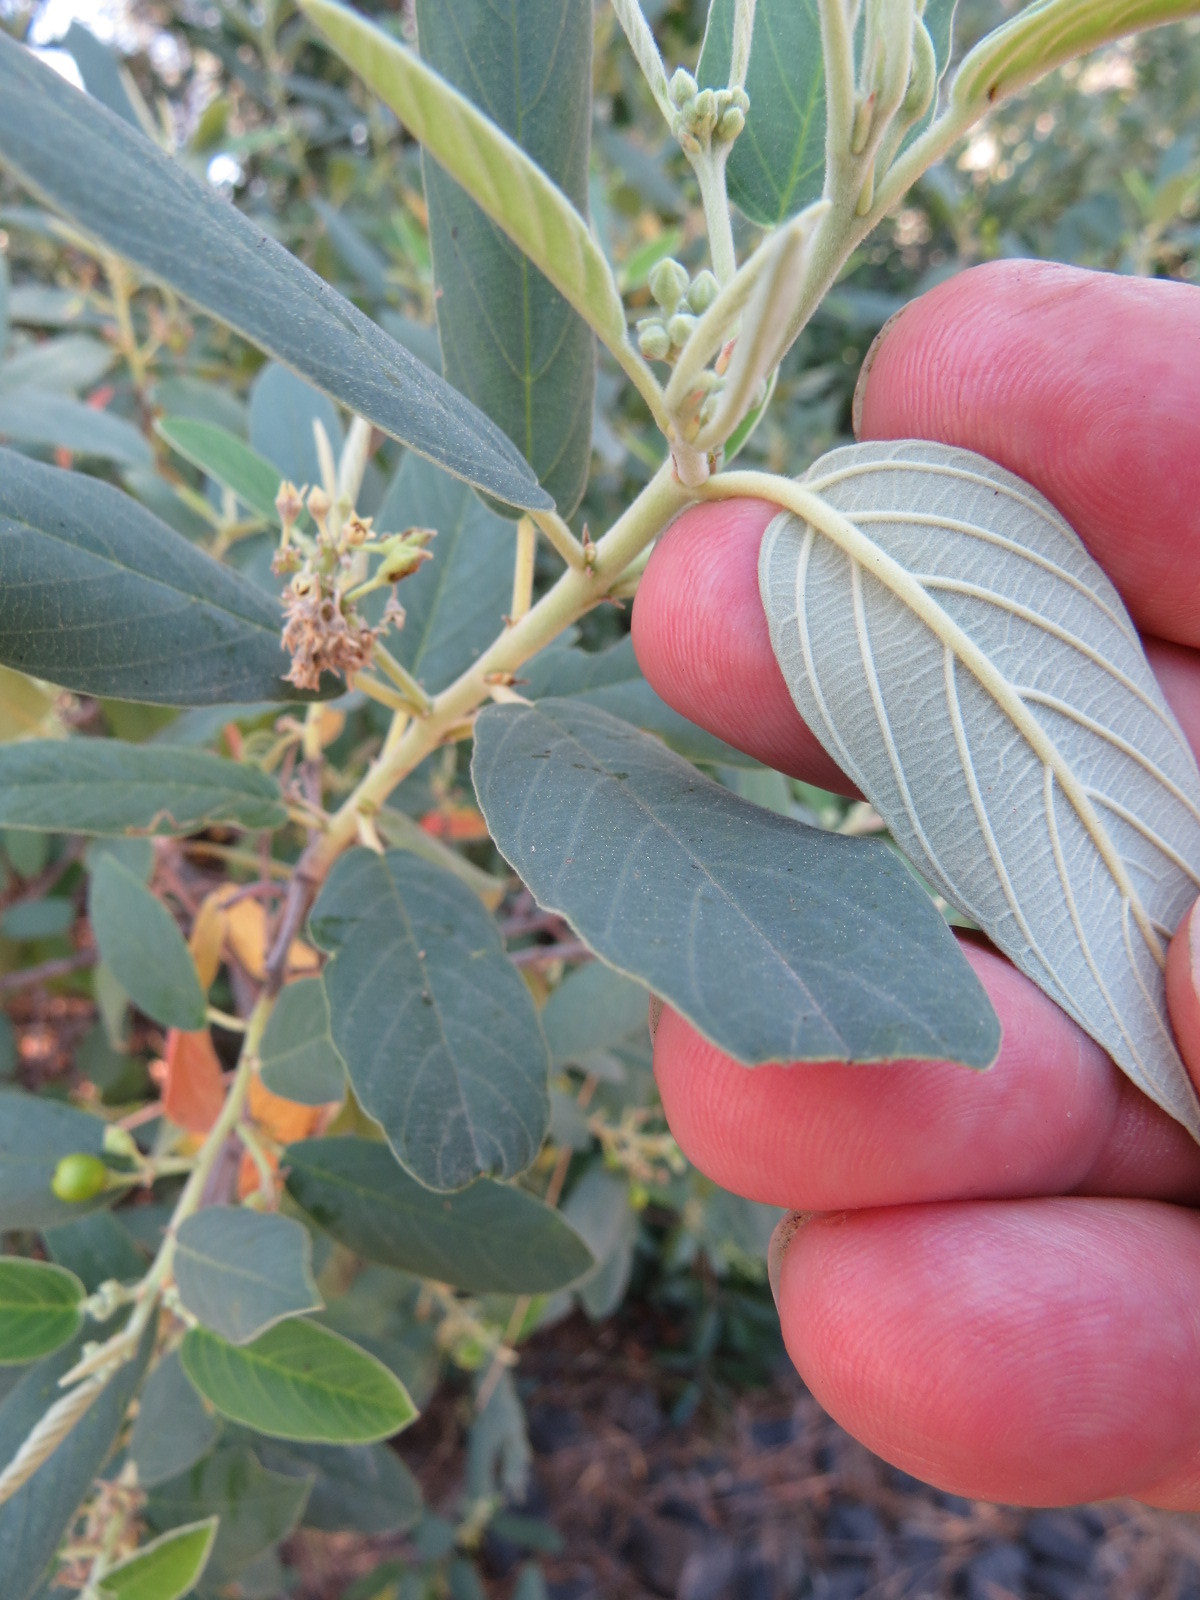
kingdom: Plantae
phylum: Tracheophyta
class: Magnoliopsida
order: Rosales
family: Rhamnaceae
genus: Frangula
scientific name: Frangula californica
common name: California buckthorn
